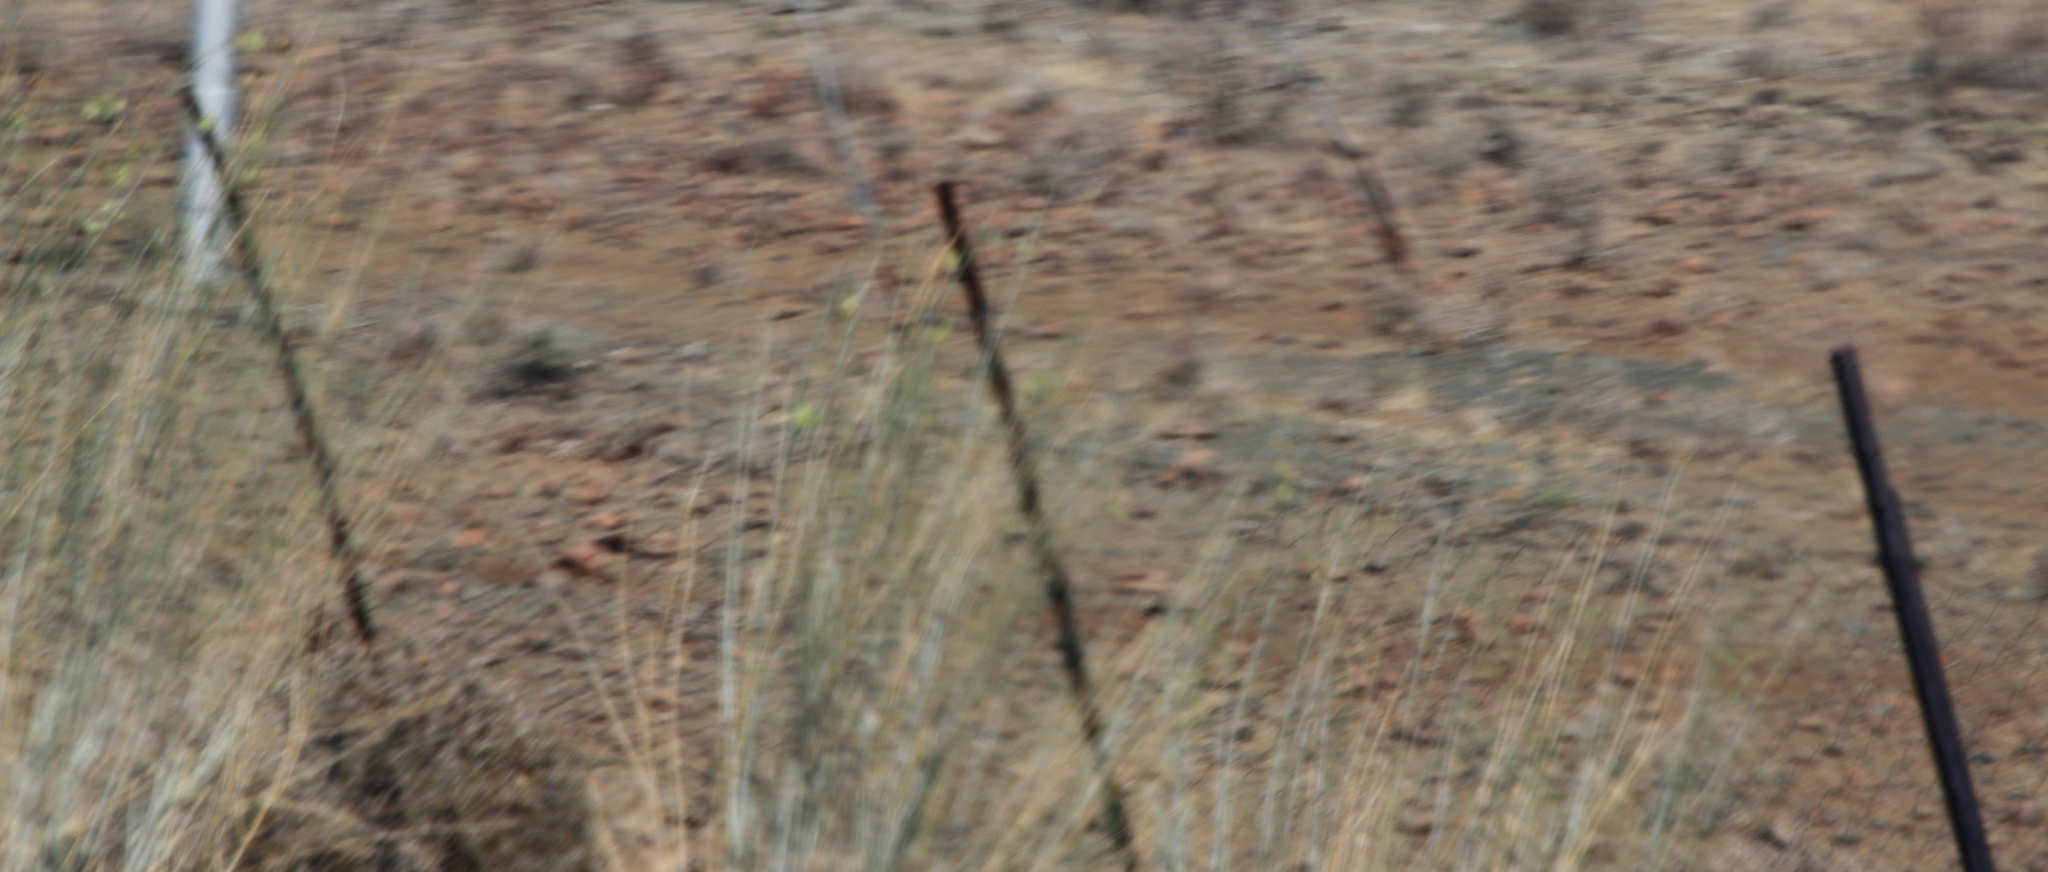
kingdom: Plantae
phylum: Tracheophyta
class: Magnoliopsida
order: Gentianales
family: Apocynaceae
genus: Gomphocarpus
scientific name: Gomphocarpus filiformis
